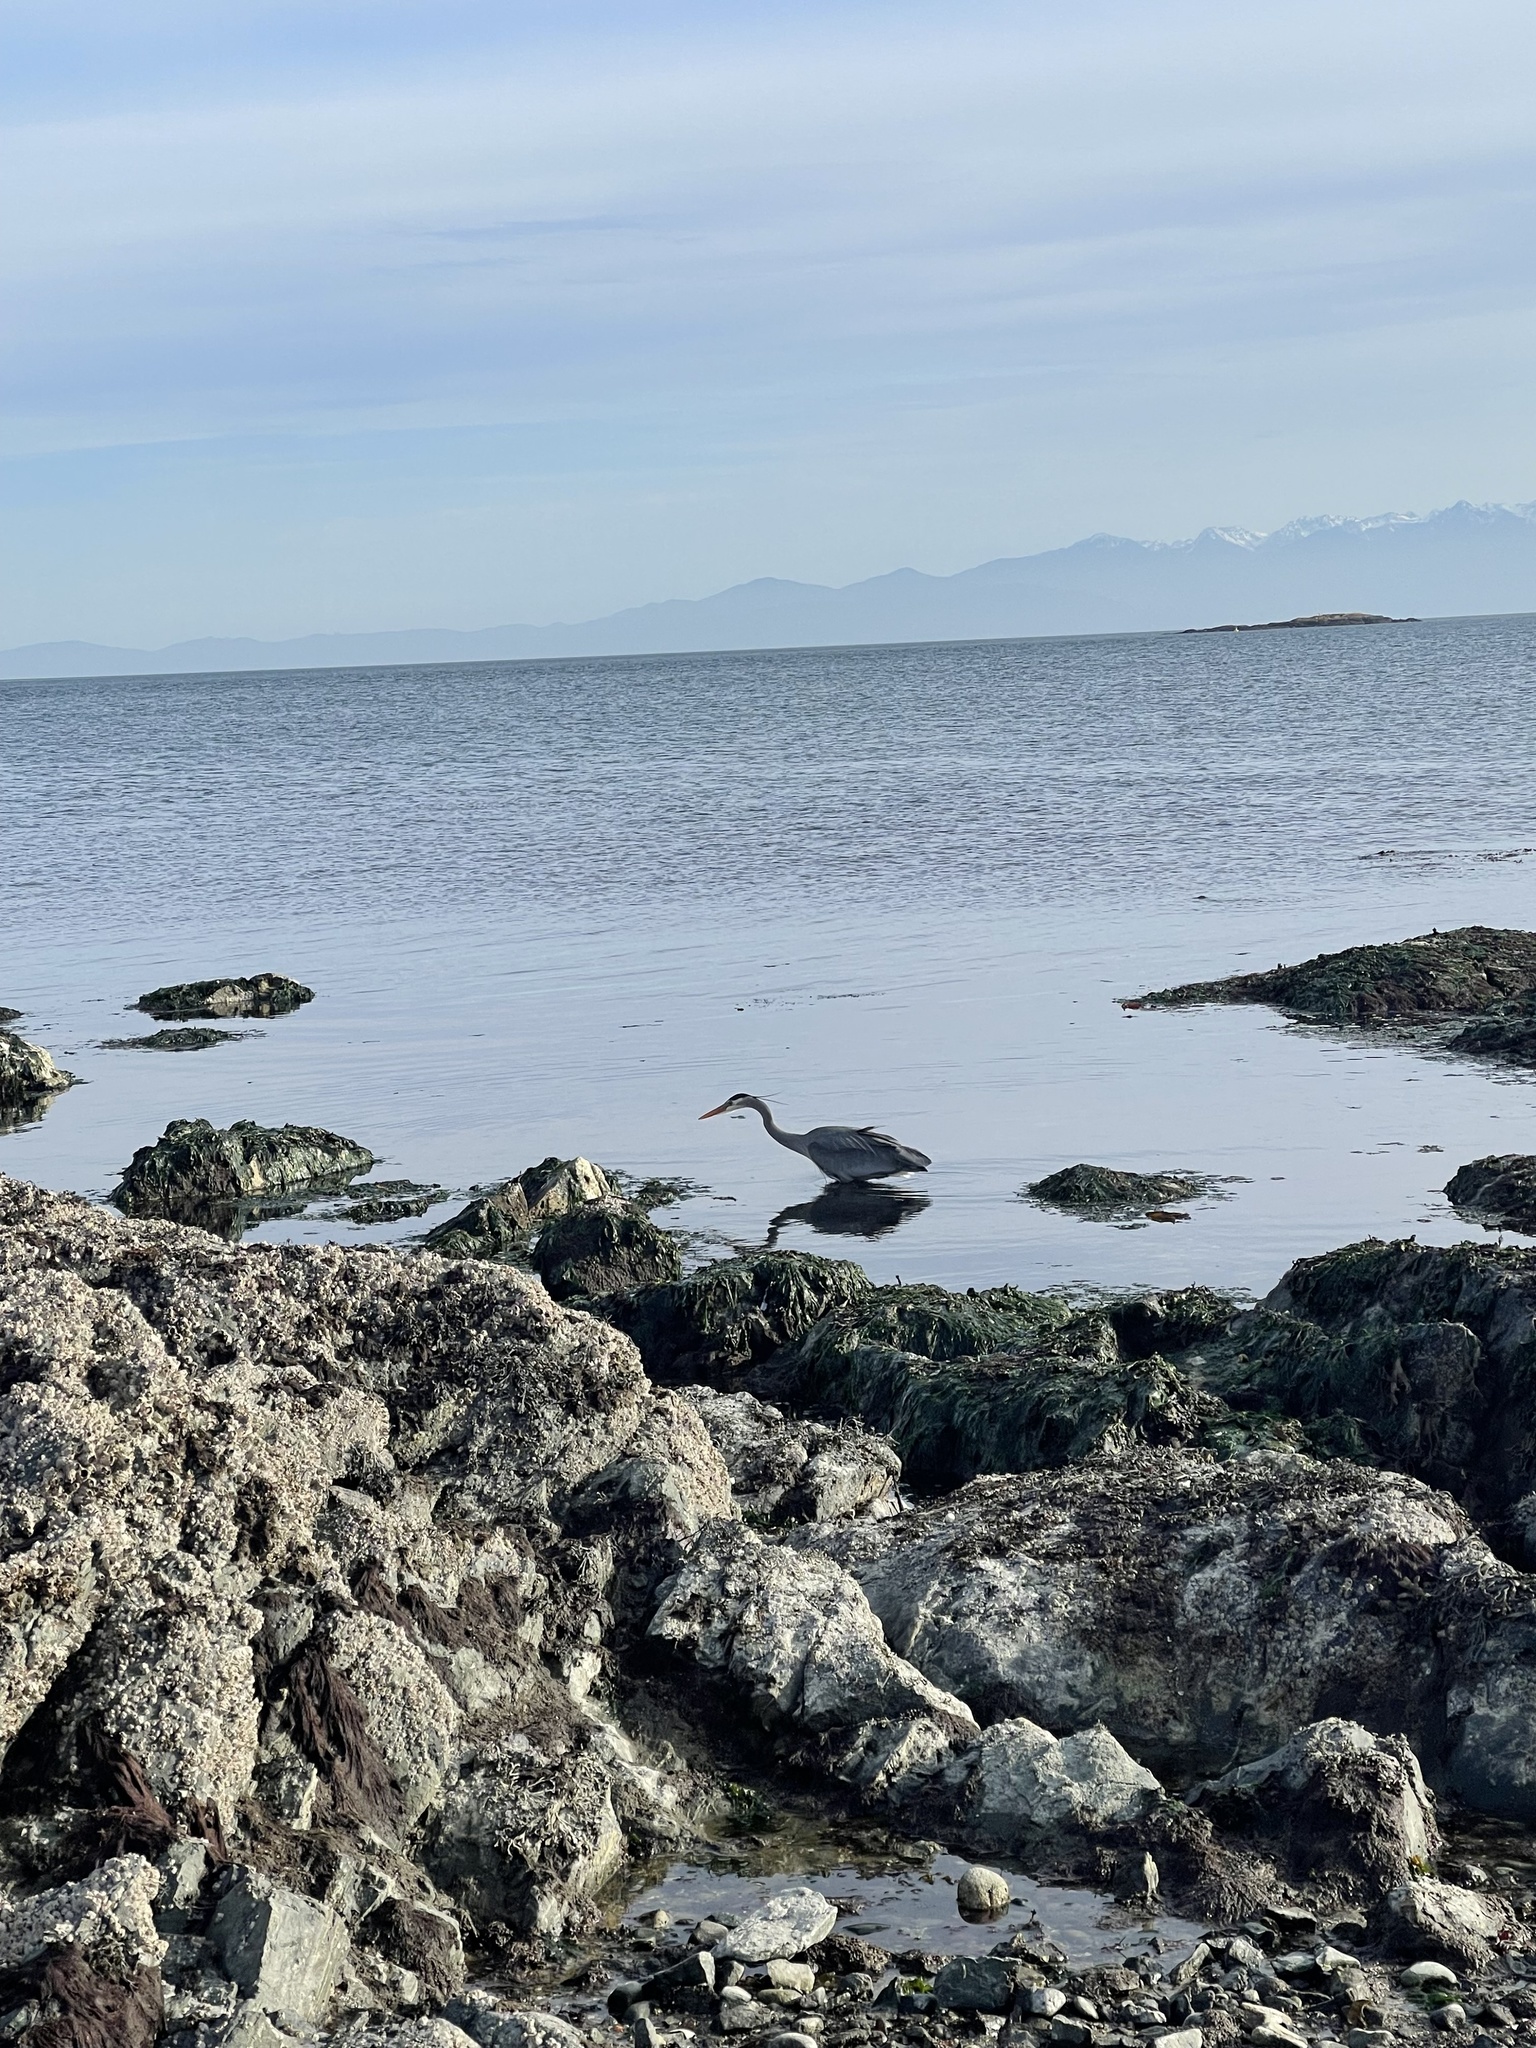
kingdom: Animalia
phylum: Chordata
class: Aves
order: Pelecaniformes
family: Ardeidae
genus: Ardea
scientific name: Ardea herodias
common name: Great blue heron
